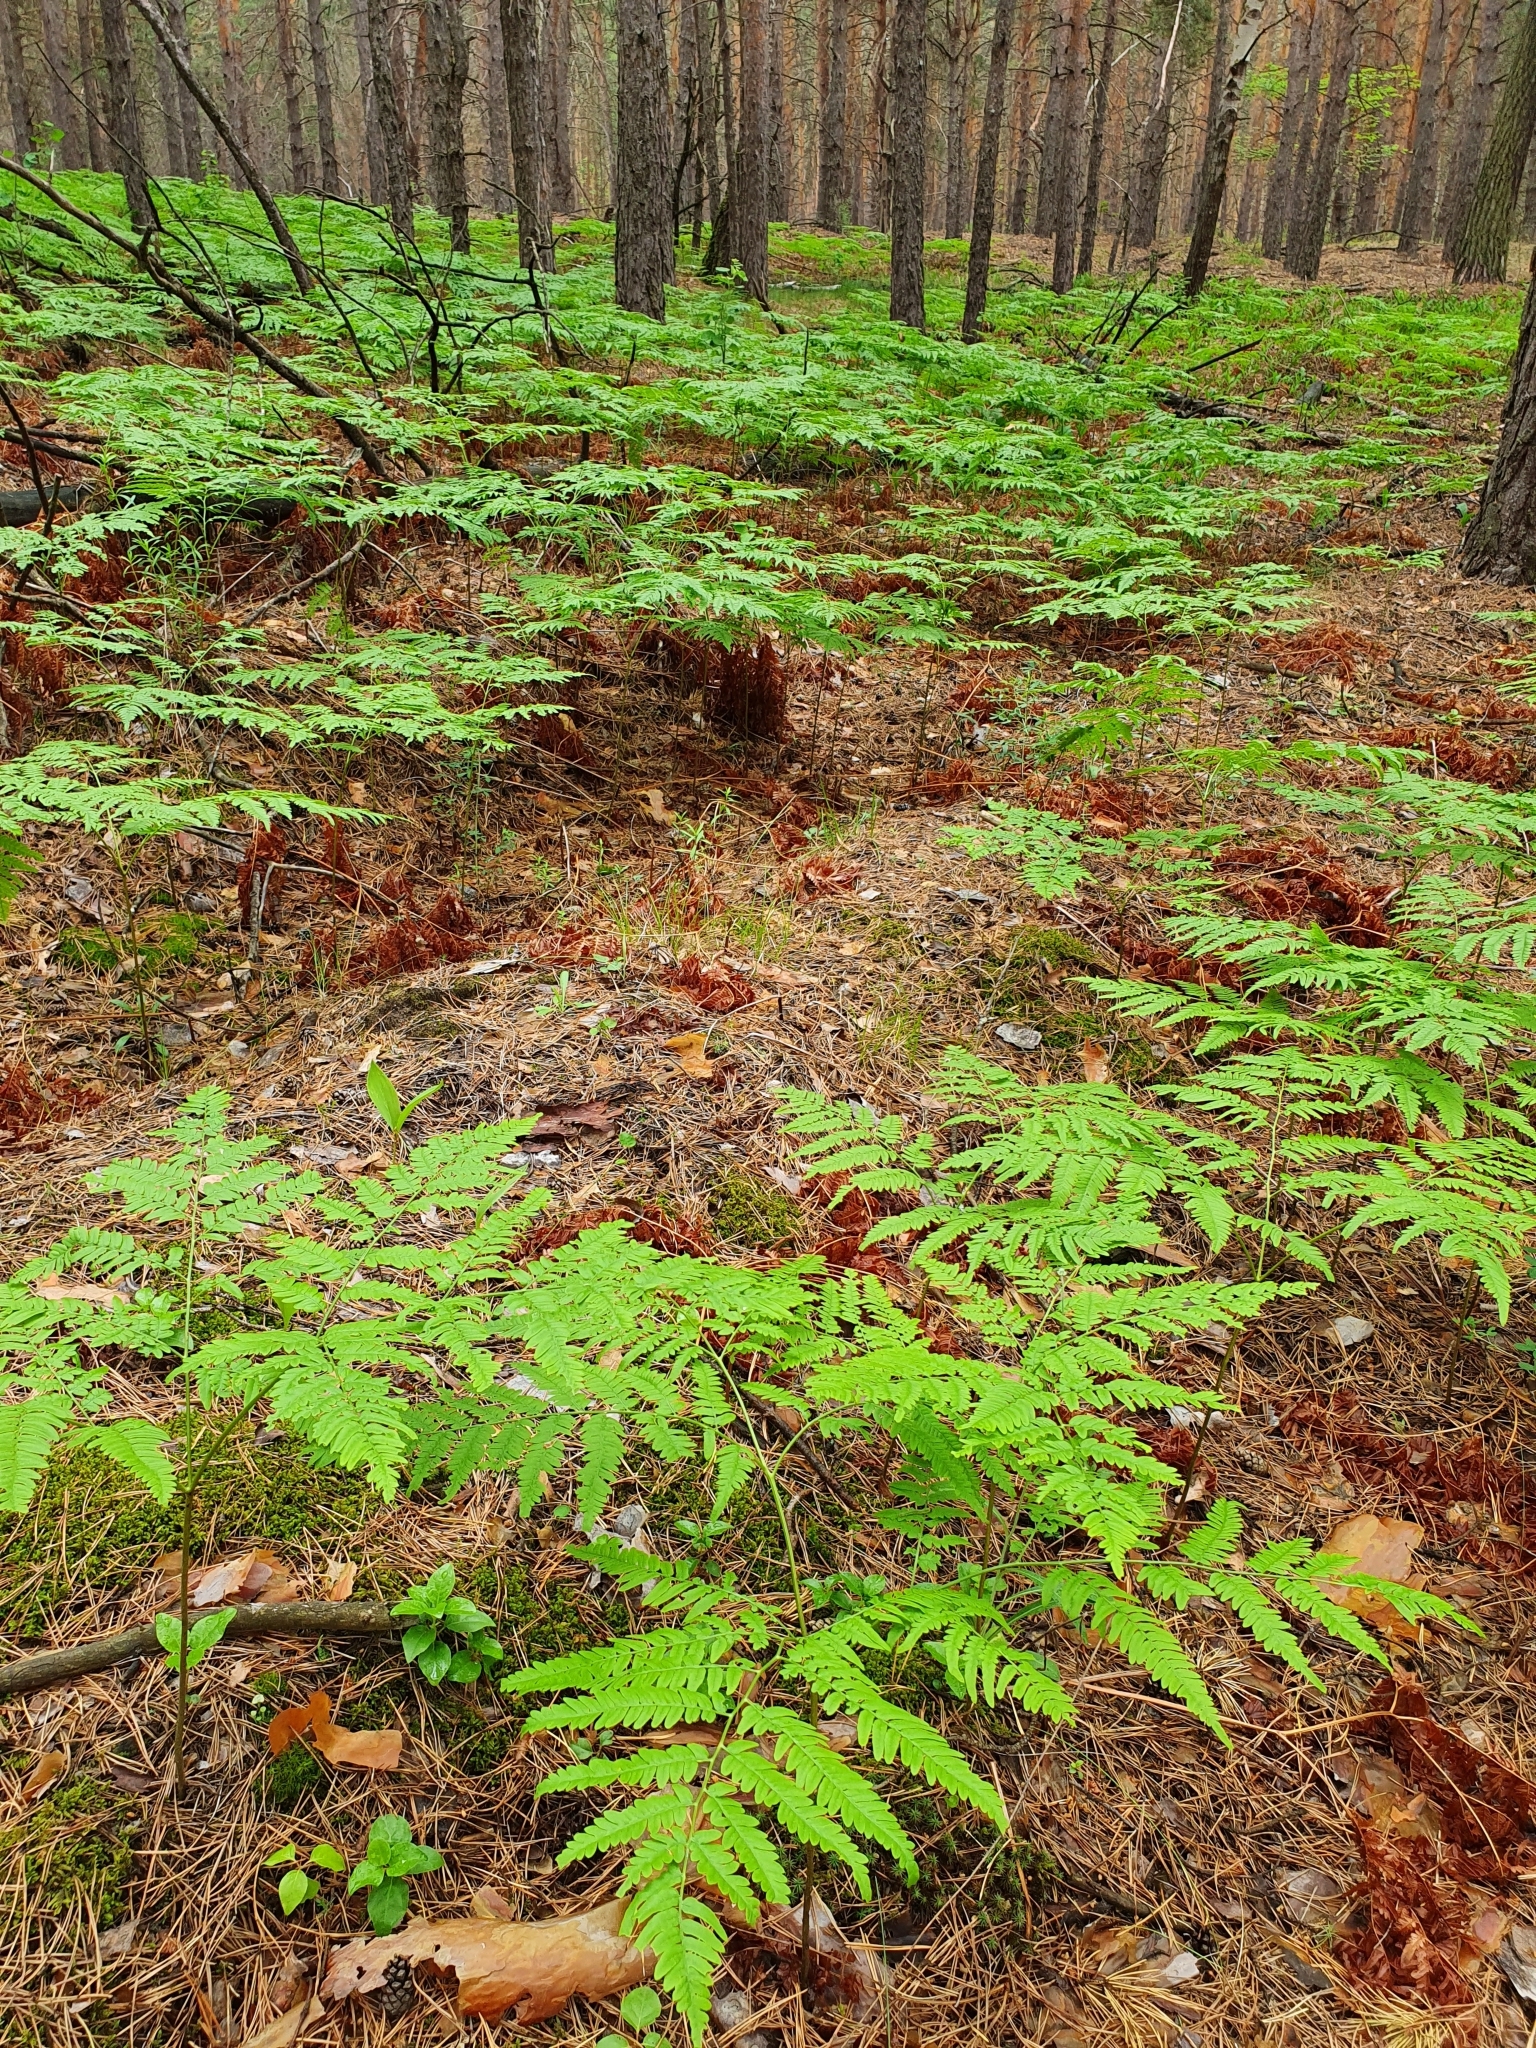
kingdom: Plantae
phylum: Tracheophyta
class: Polypodiopsida
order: Polypodiales
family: Dennstaedtiaceae
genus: Pteridium
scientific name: Pteridium aquilinum
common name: Bracken
